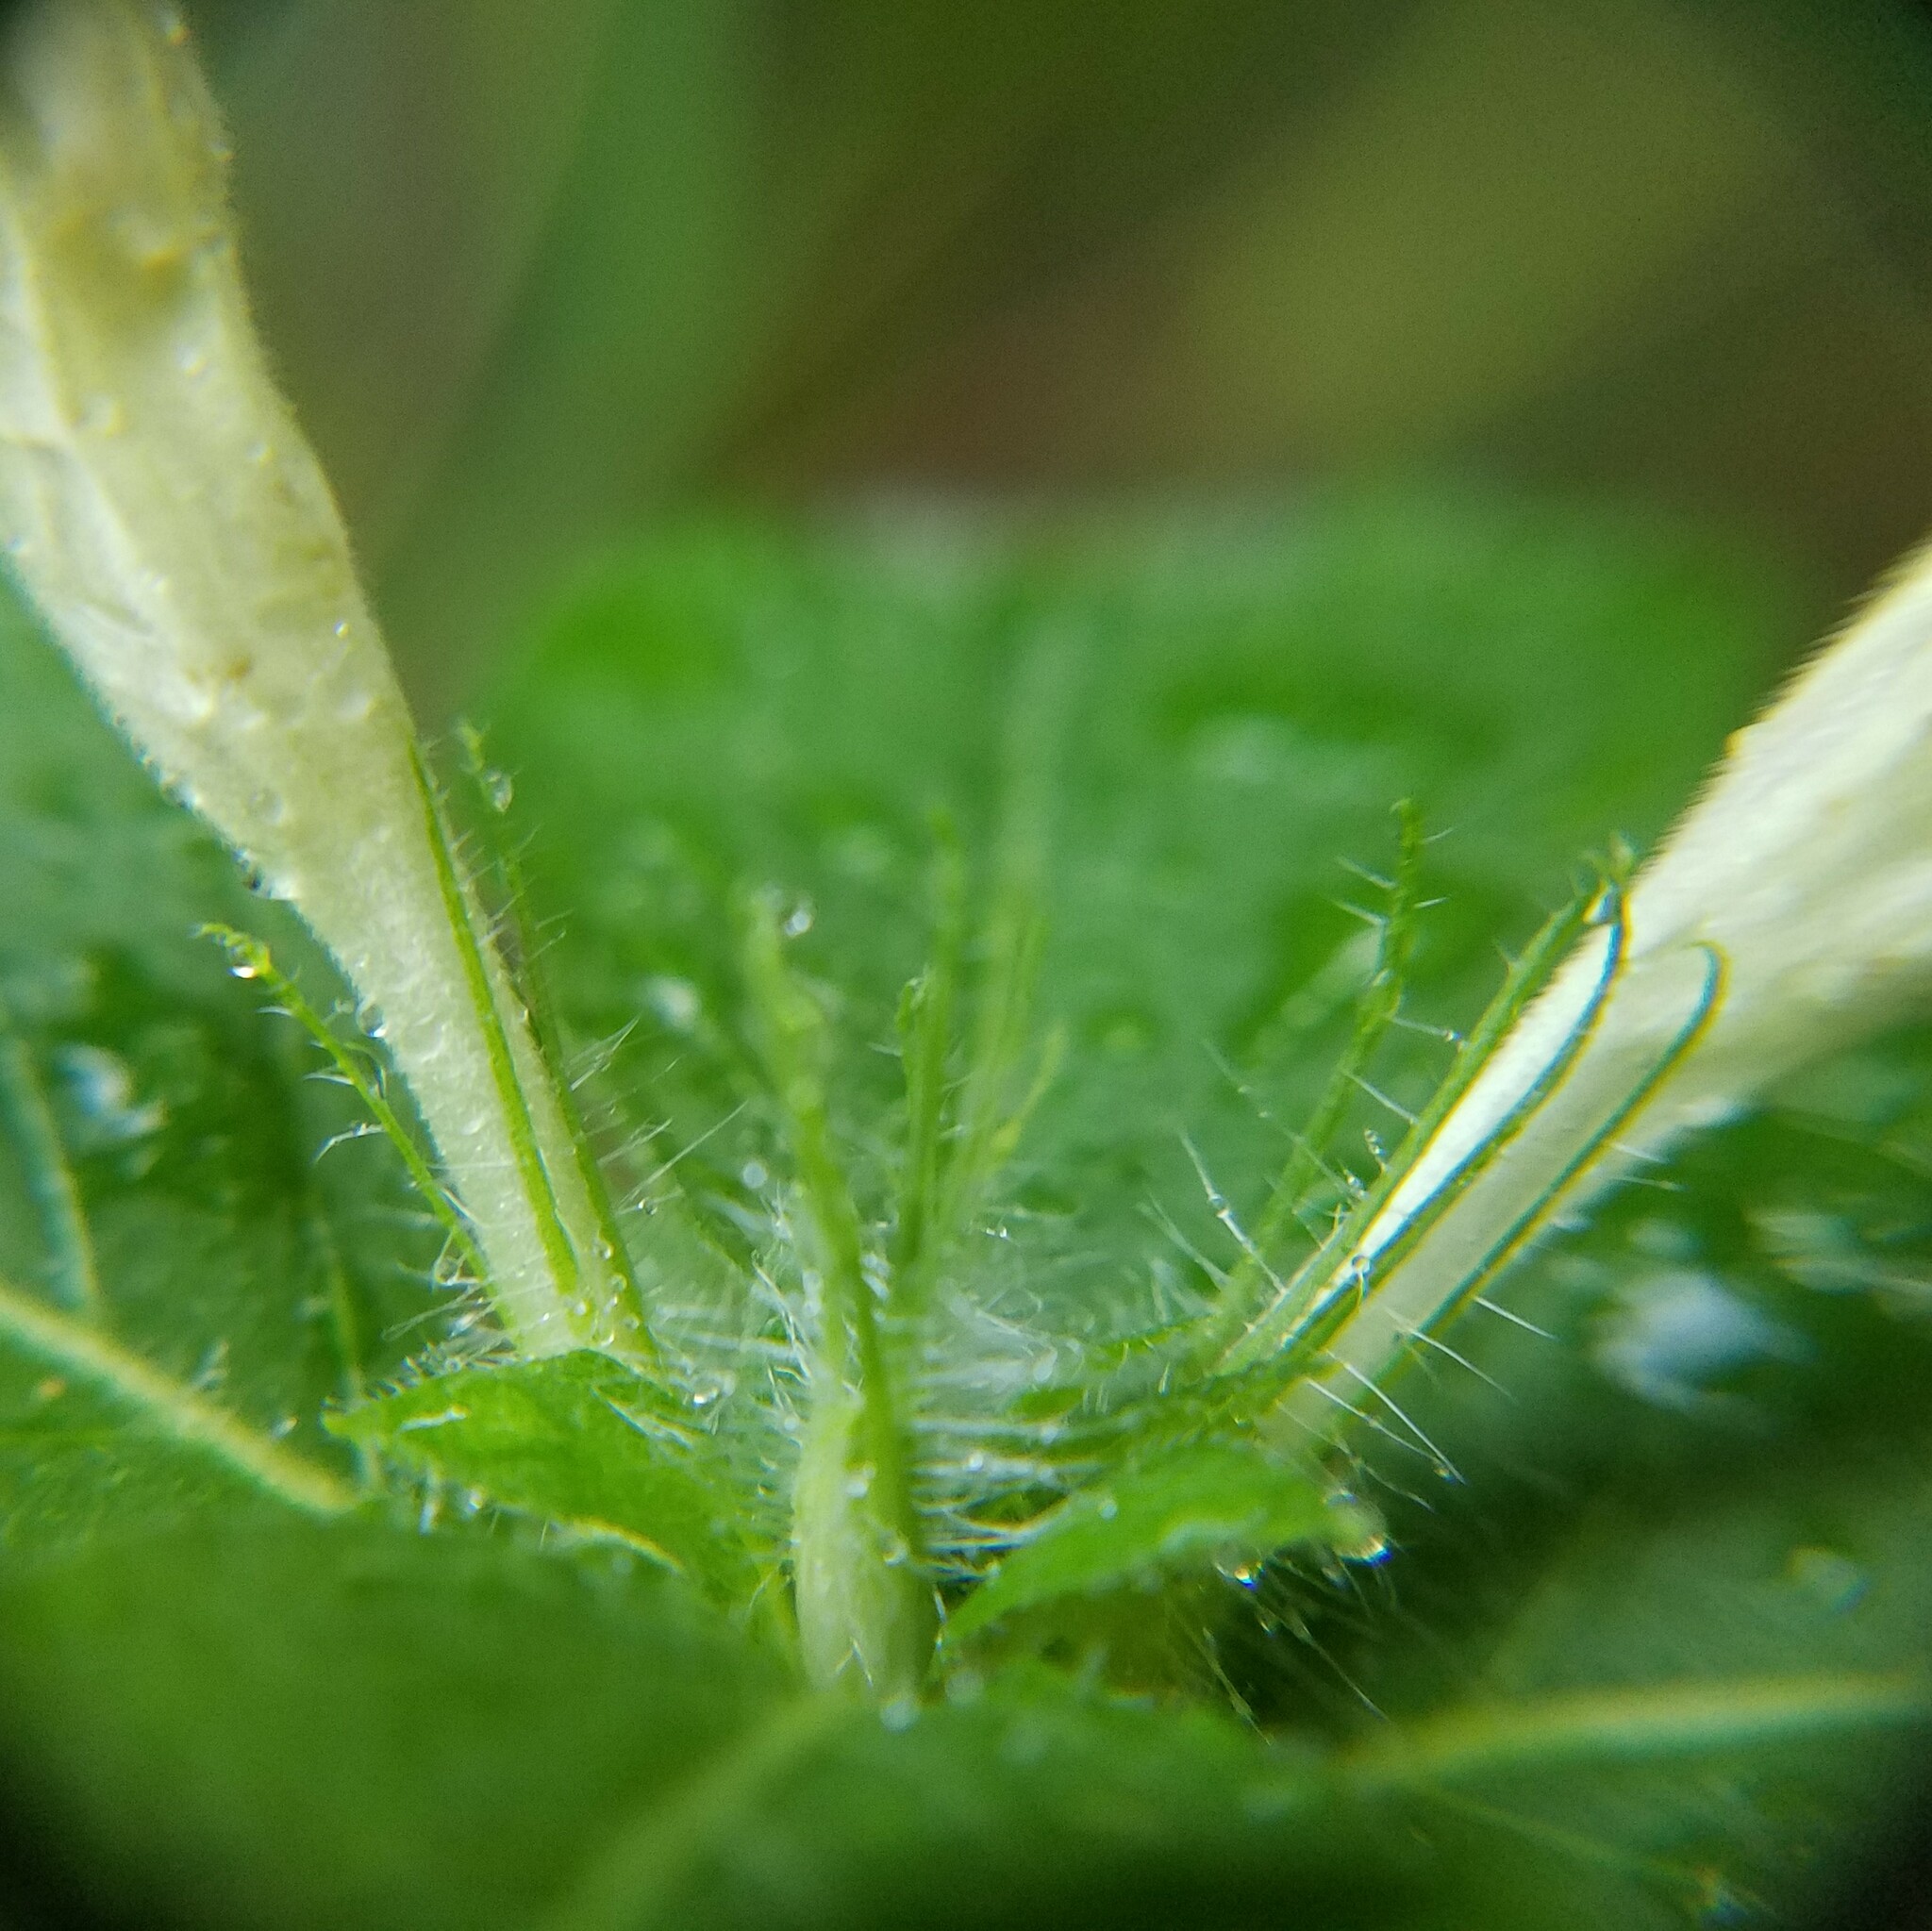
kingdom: Plantae
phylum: Tracheophyta
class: Magnoliopsida
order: Lamiales
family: Acanthaceae
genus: Ruellia
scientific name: Ruellia caroliniensis
